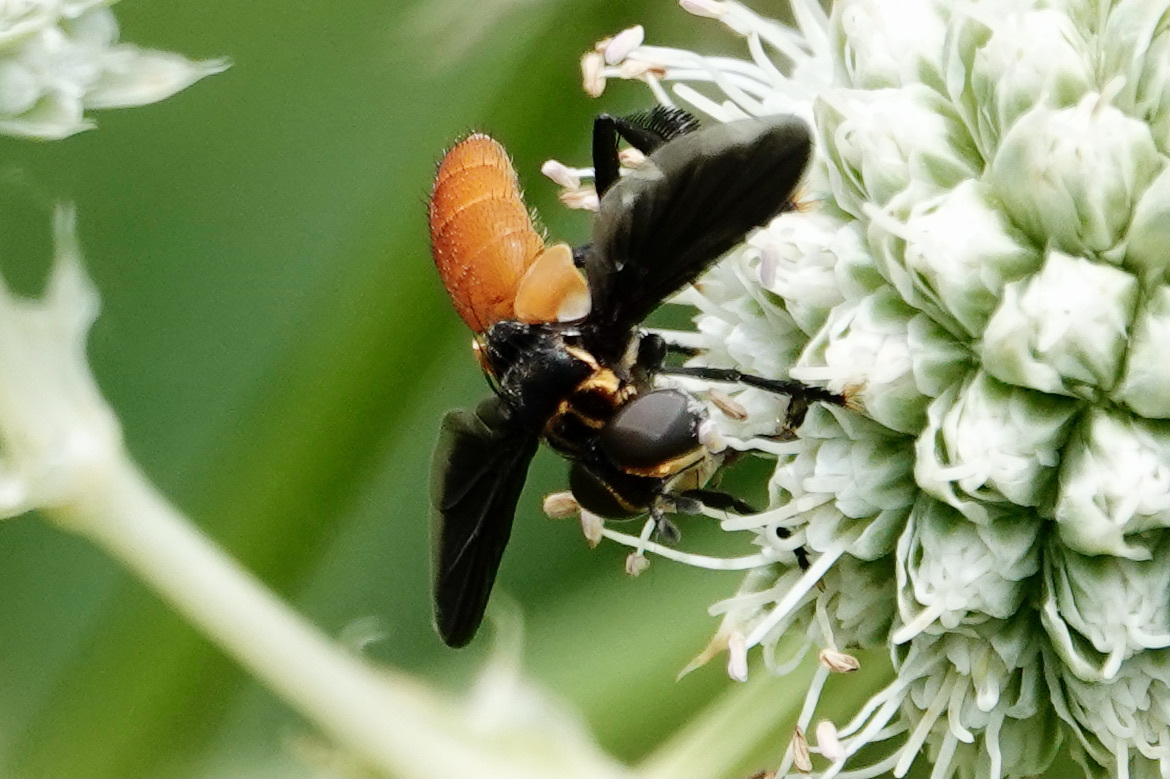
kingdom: Animalia
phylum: Arthropoda
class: Insecta
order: Diptera
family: Tachinidae
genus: Trichopoda
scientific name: Trichopoda pennipes
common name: Tachinid fly
